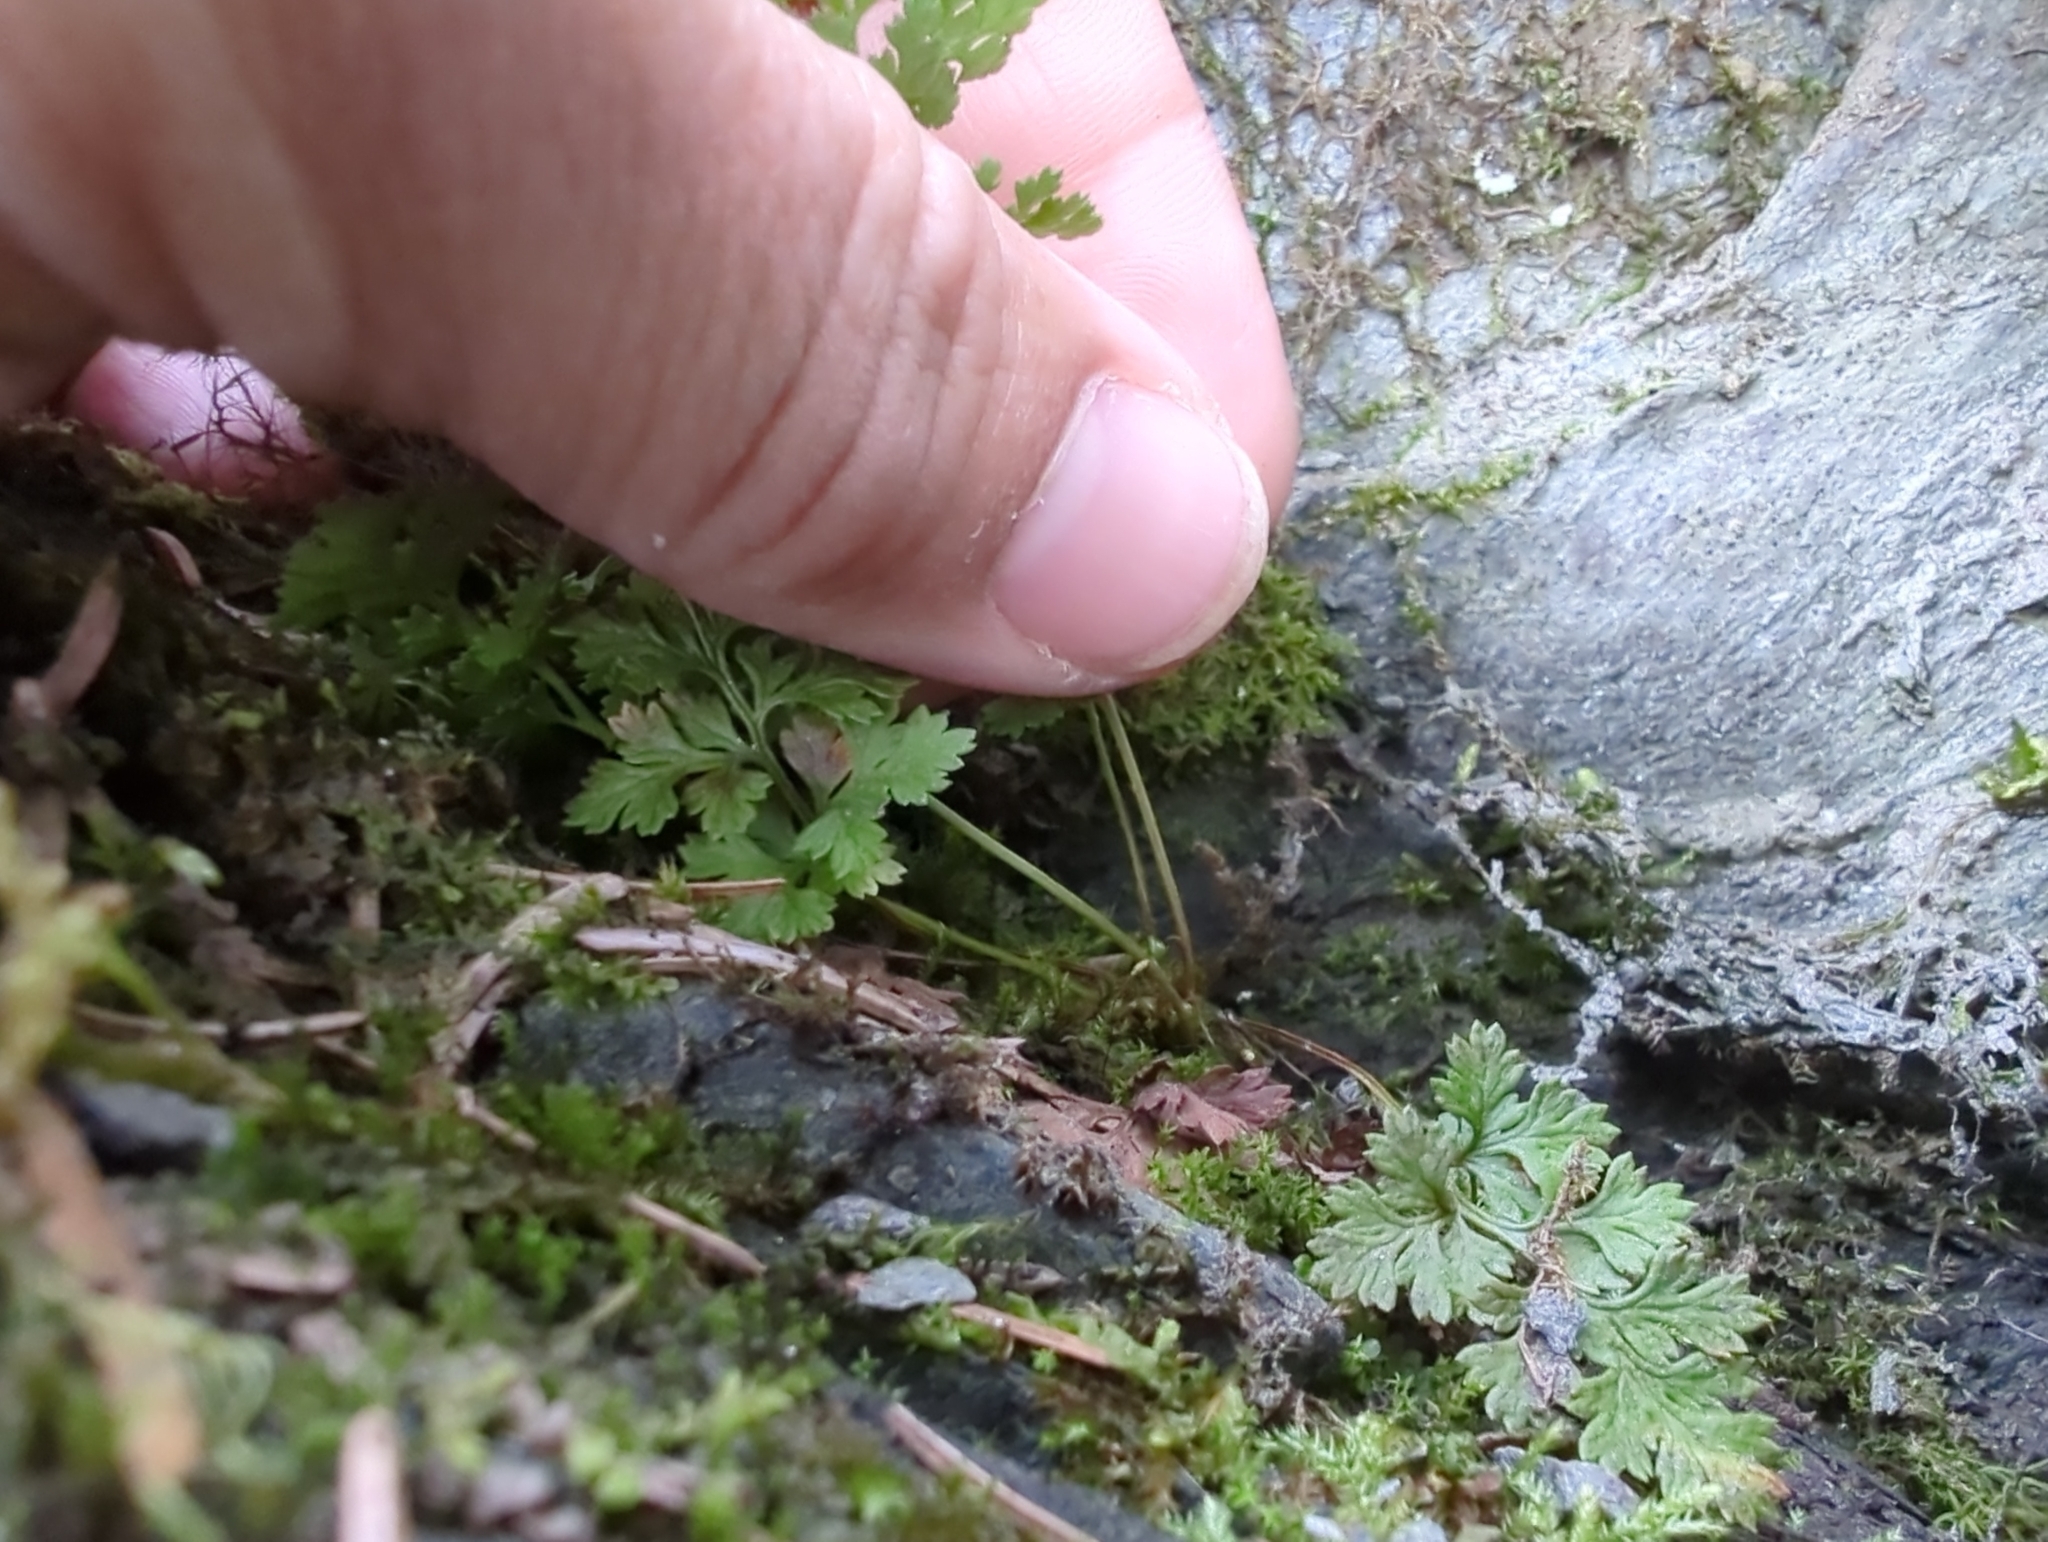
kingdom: Plantae
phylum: Tracheophyta
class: Polypodiopsida
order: Polypodiales
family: Pteridaceae
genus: Cryptogramma
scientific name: Cryptogramma sitchensis
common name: Alaska parsley fern
